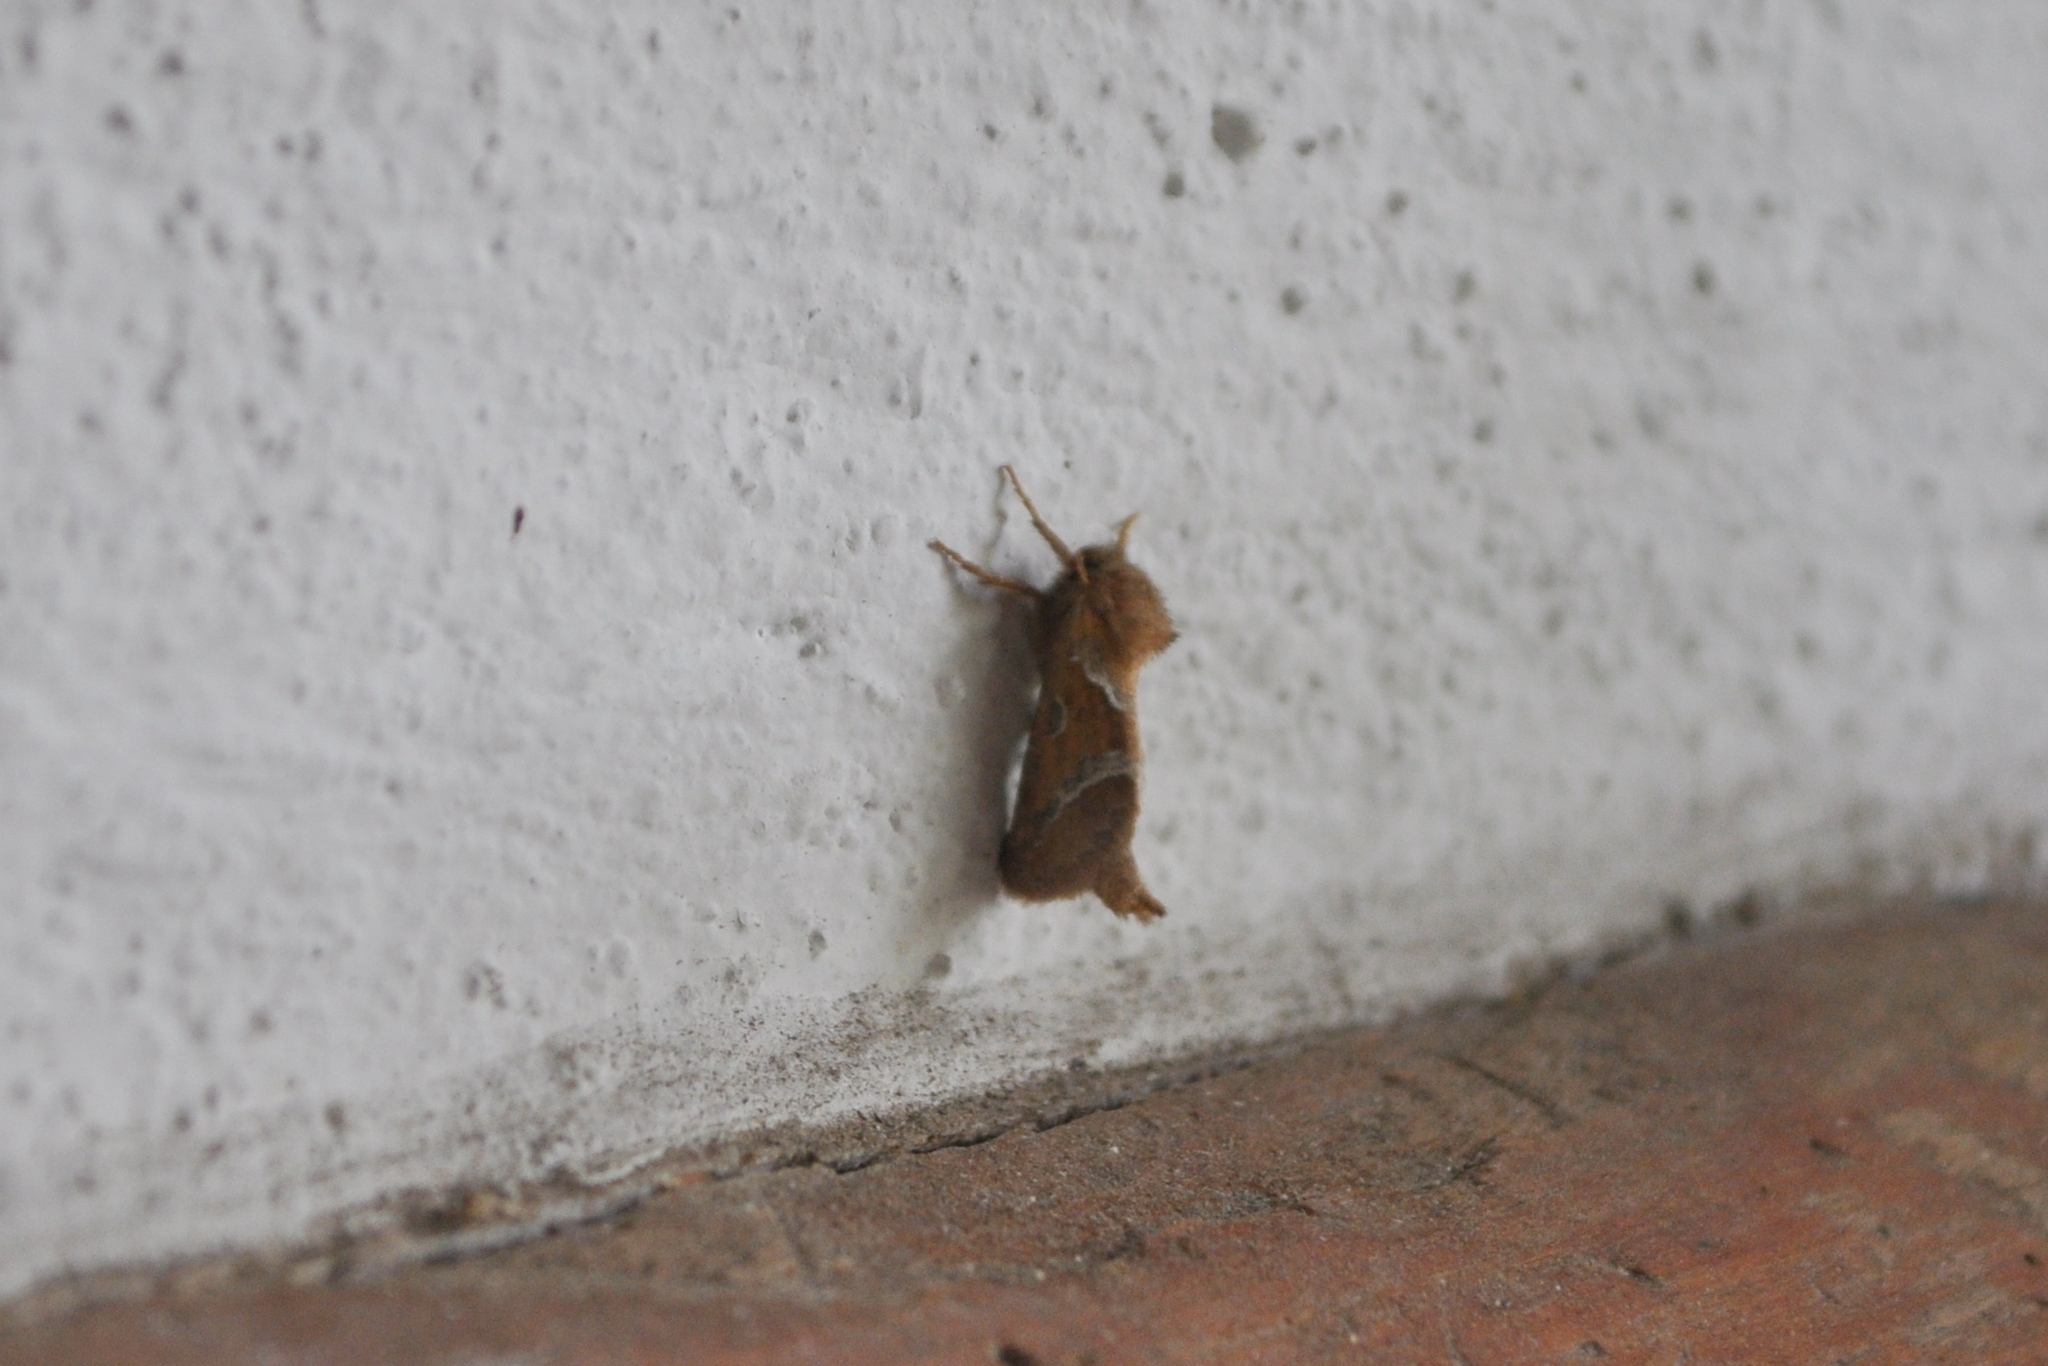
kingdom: Animalia
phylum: Arthropoda
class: Insecta
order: Lepidoptera
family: Hepialidae
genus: Triodia
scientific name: Triodia sylvina
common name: Orange swift
